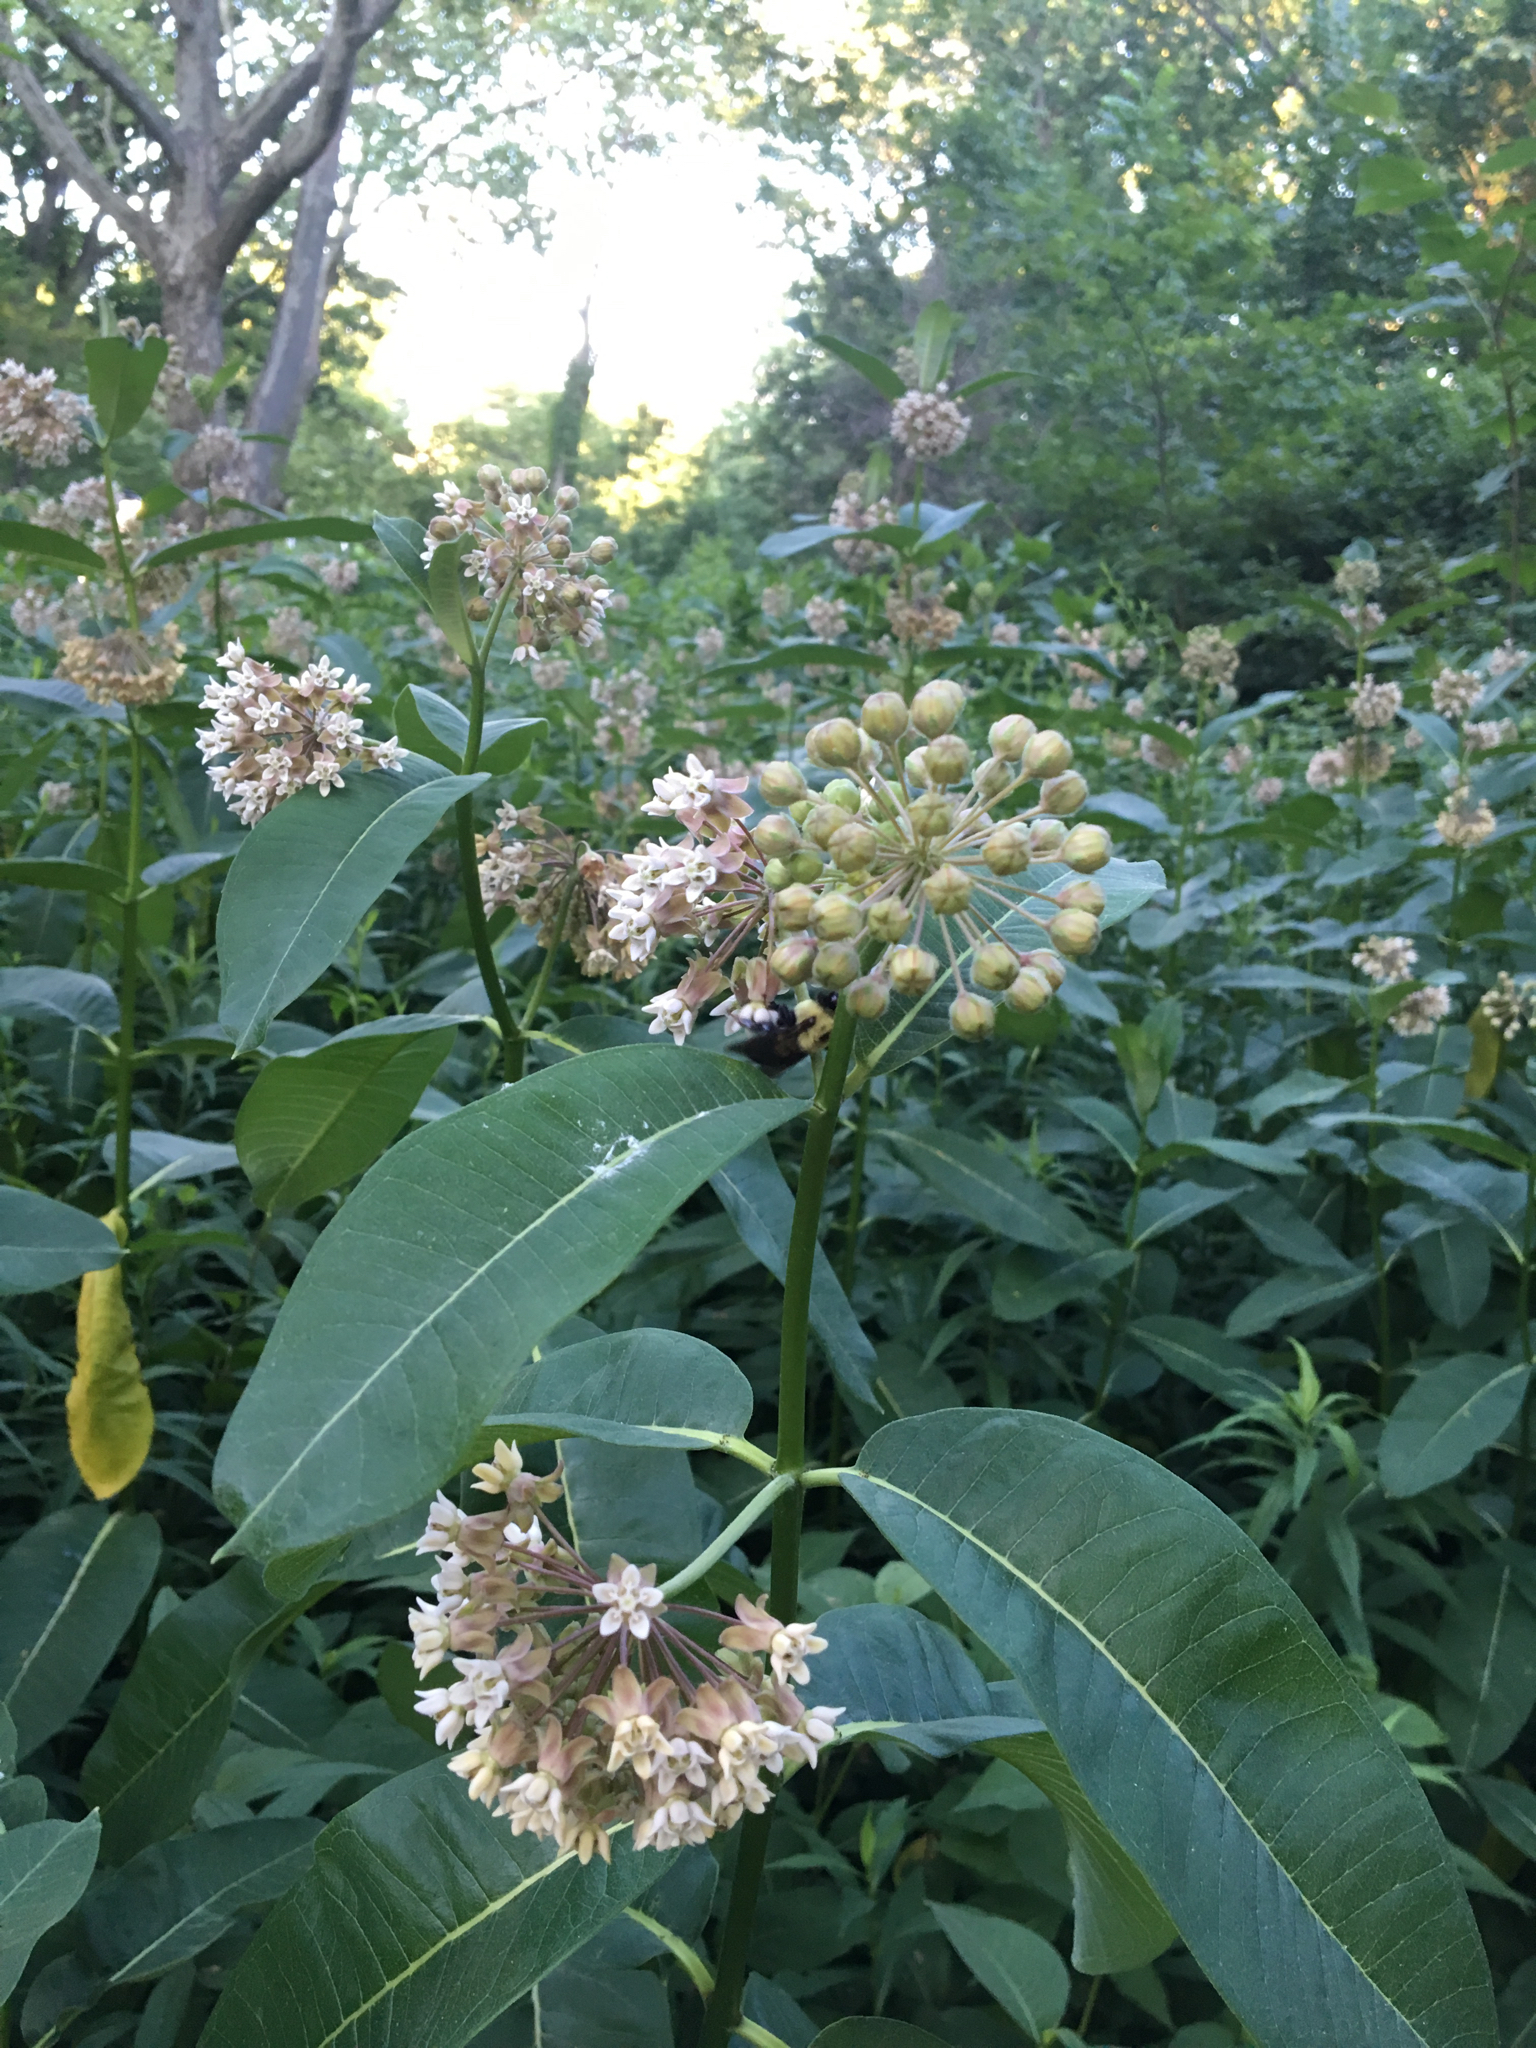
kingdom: Plantae
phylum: Tracheophyta
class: Magnoliopsida
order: Gentianales
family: Apocynaceae
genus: Asclepias
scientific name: Asclepias syriaca
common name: Common milkweed
